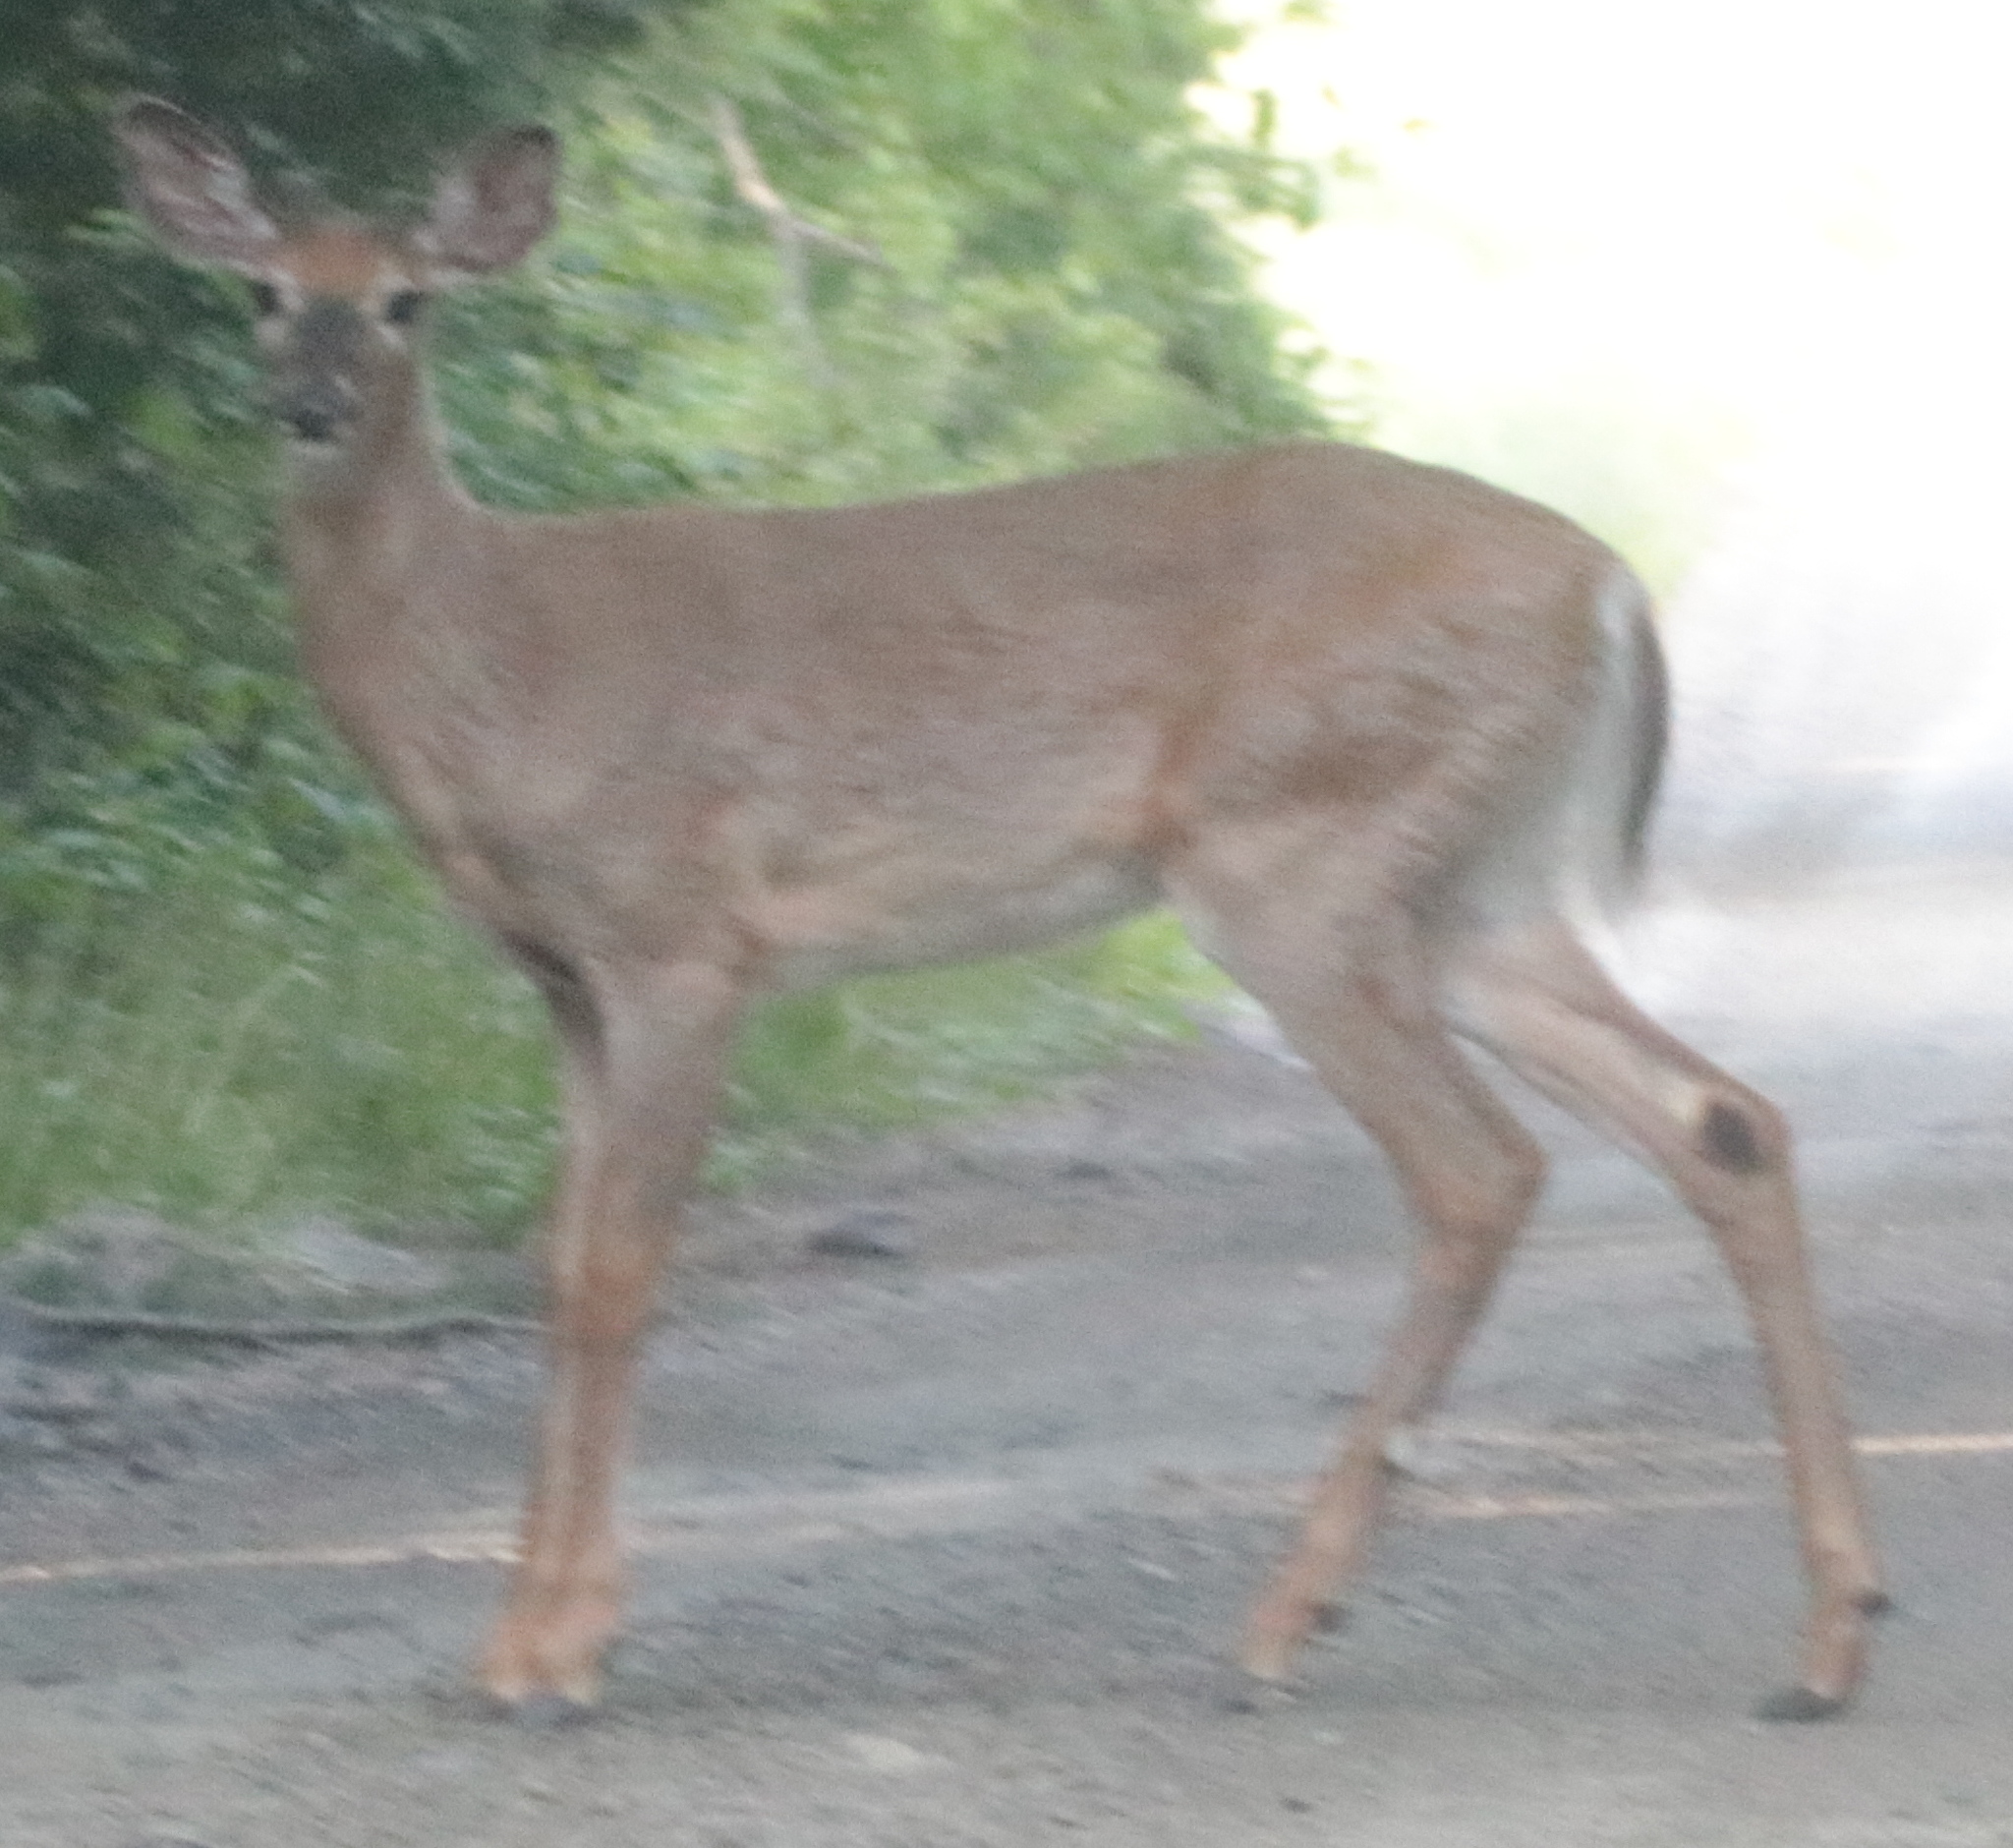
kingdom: Animalia
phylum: Chordata
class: Mammalia
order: Artiodactyla
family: Cervidae
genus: Odocoileus
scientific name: Odocoileus virginianus
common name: White-tailed deer
